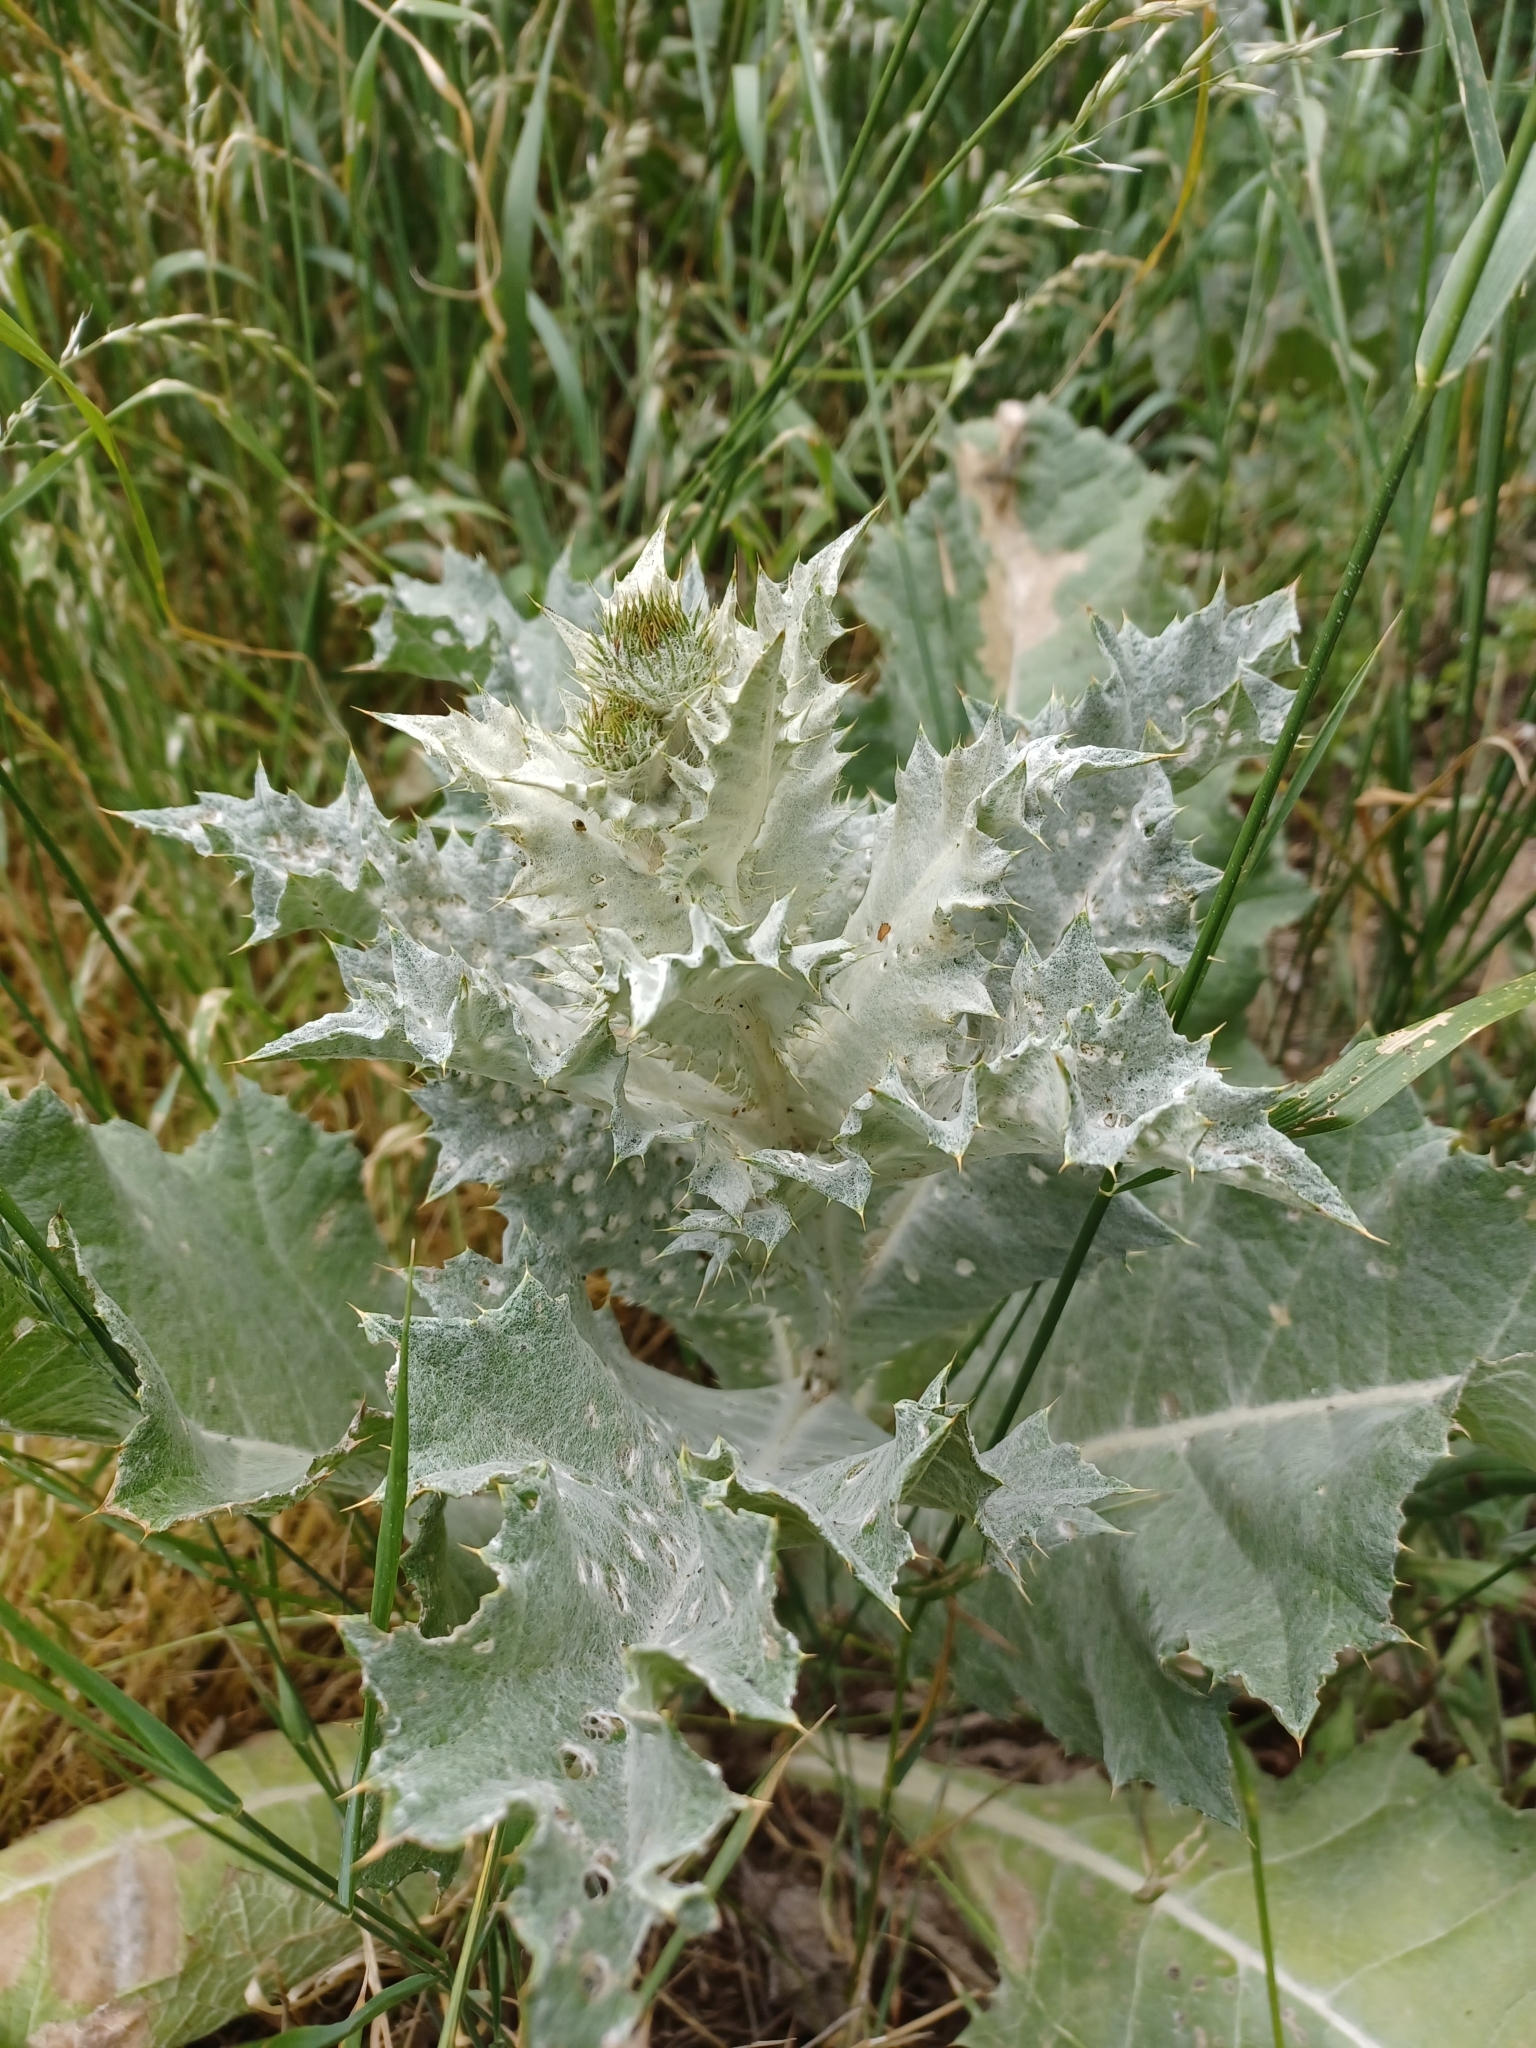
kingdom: Plantae
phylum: Tracheophyta
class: Magnoliopsida
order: Asterales
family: Asteraceae
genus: Onopordum
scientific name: Onopordum acanthium
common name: Scotch thistle
